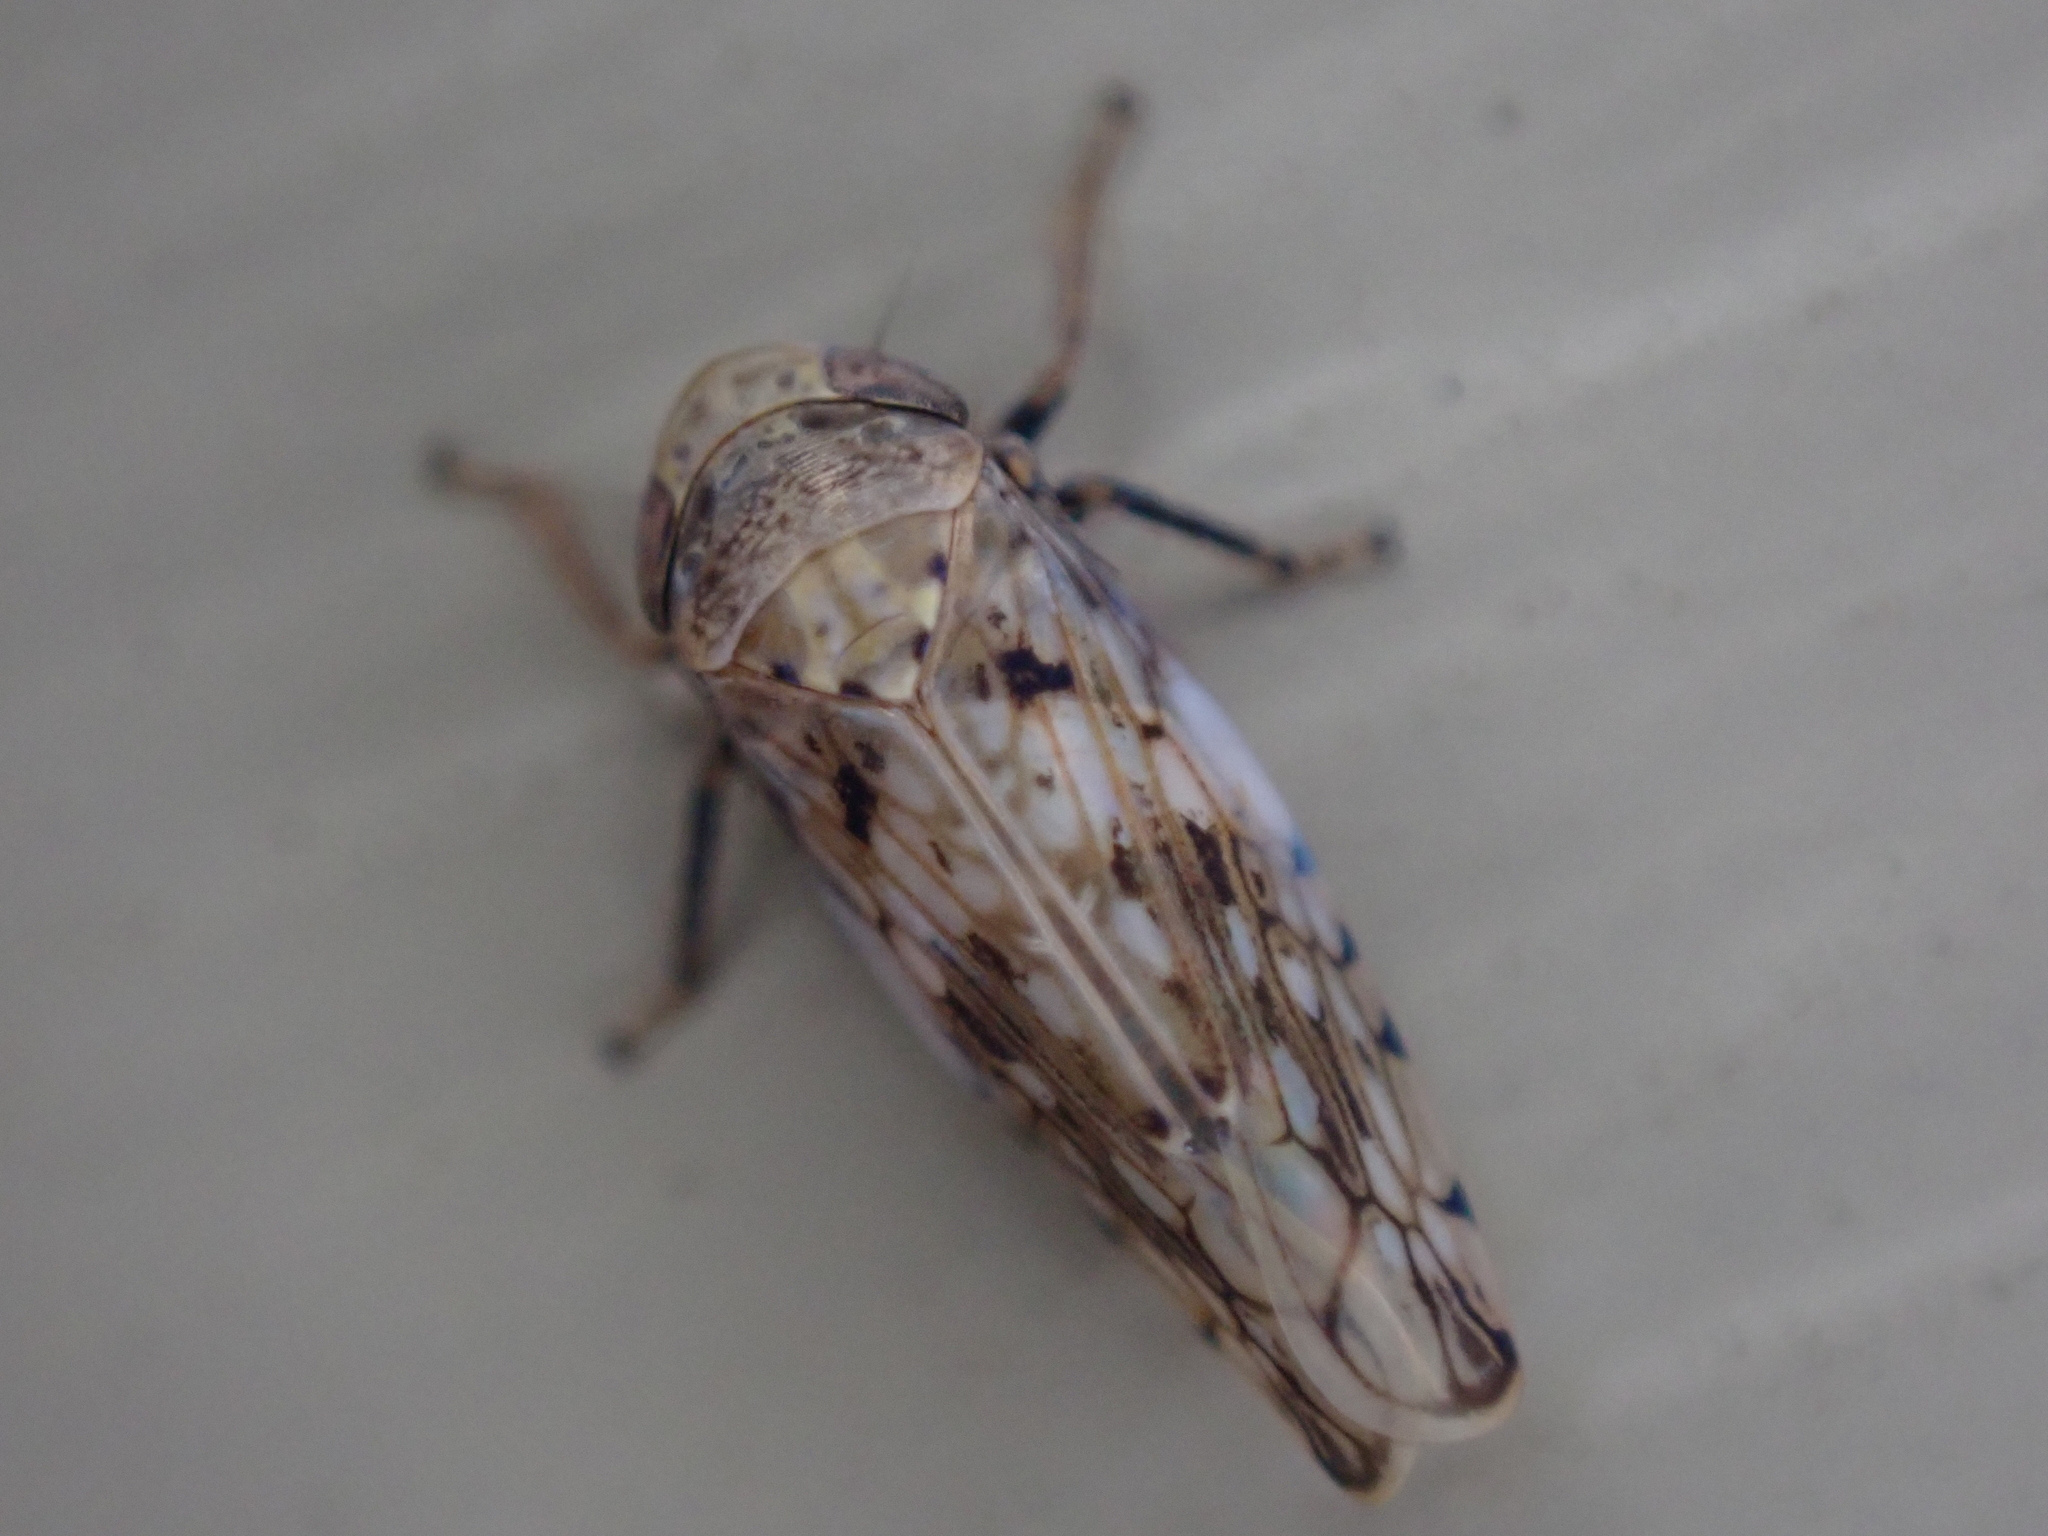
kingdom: Animalia
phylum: Arthropoda
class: Insecta
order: Hemiptera
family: Cicadellidae
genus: Menosoma
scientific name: Menosoma cinctum
